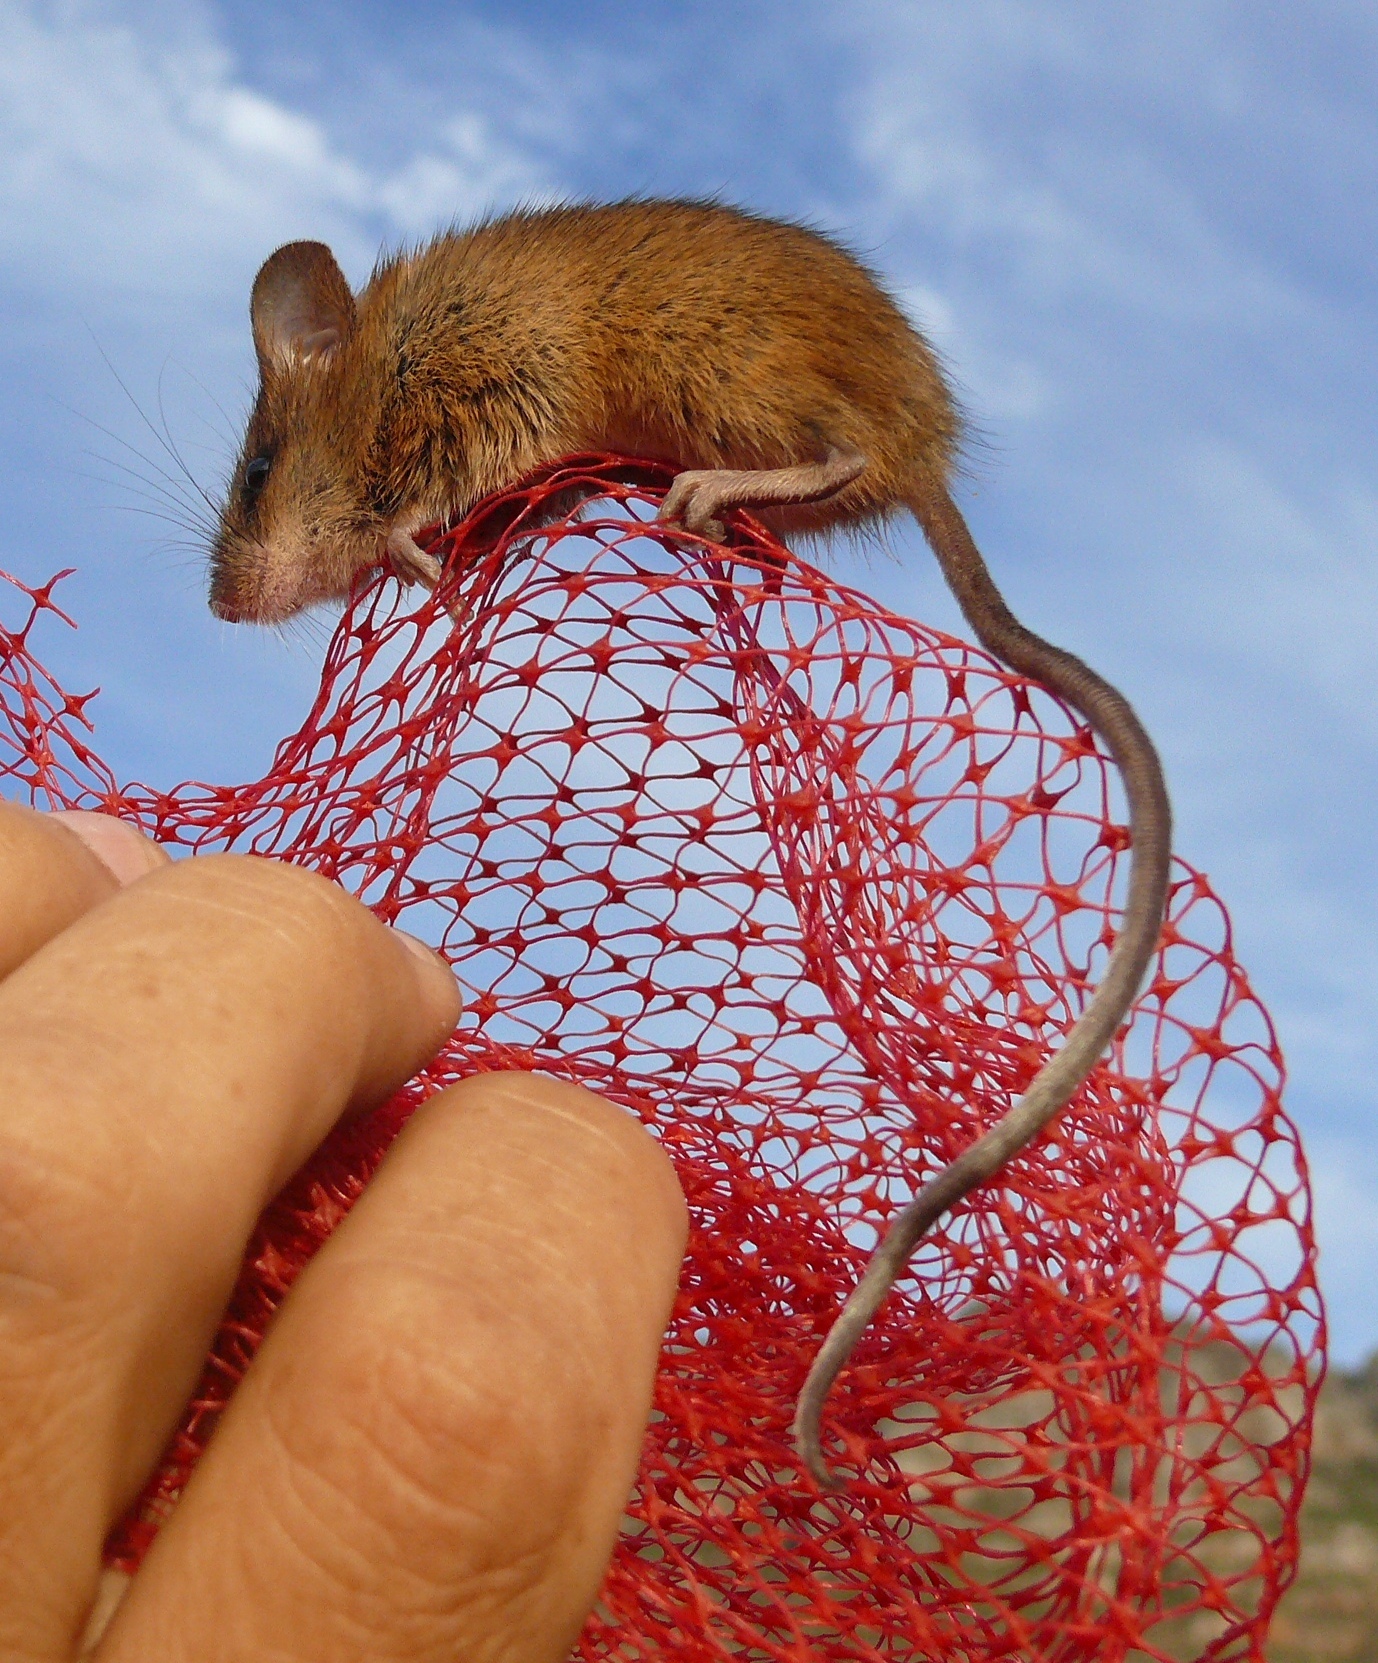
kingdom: Animalia
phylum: Chordata
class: Mammalia
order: Rodentia
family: Nesomyidae
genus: Dendromus
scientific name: Dendromus mesomelas
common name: Brant's climbing mouse
